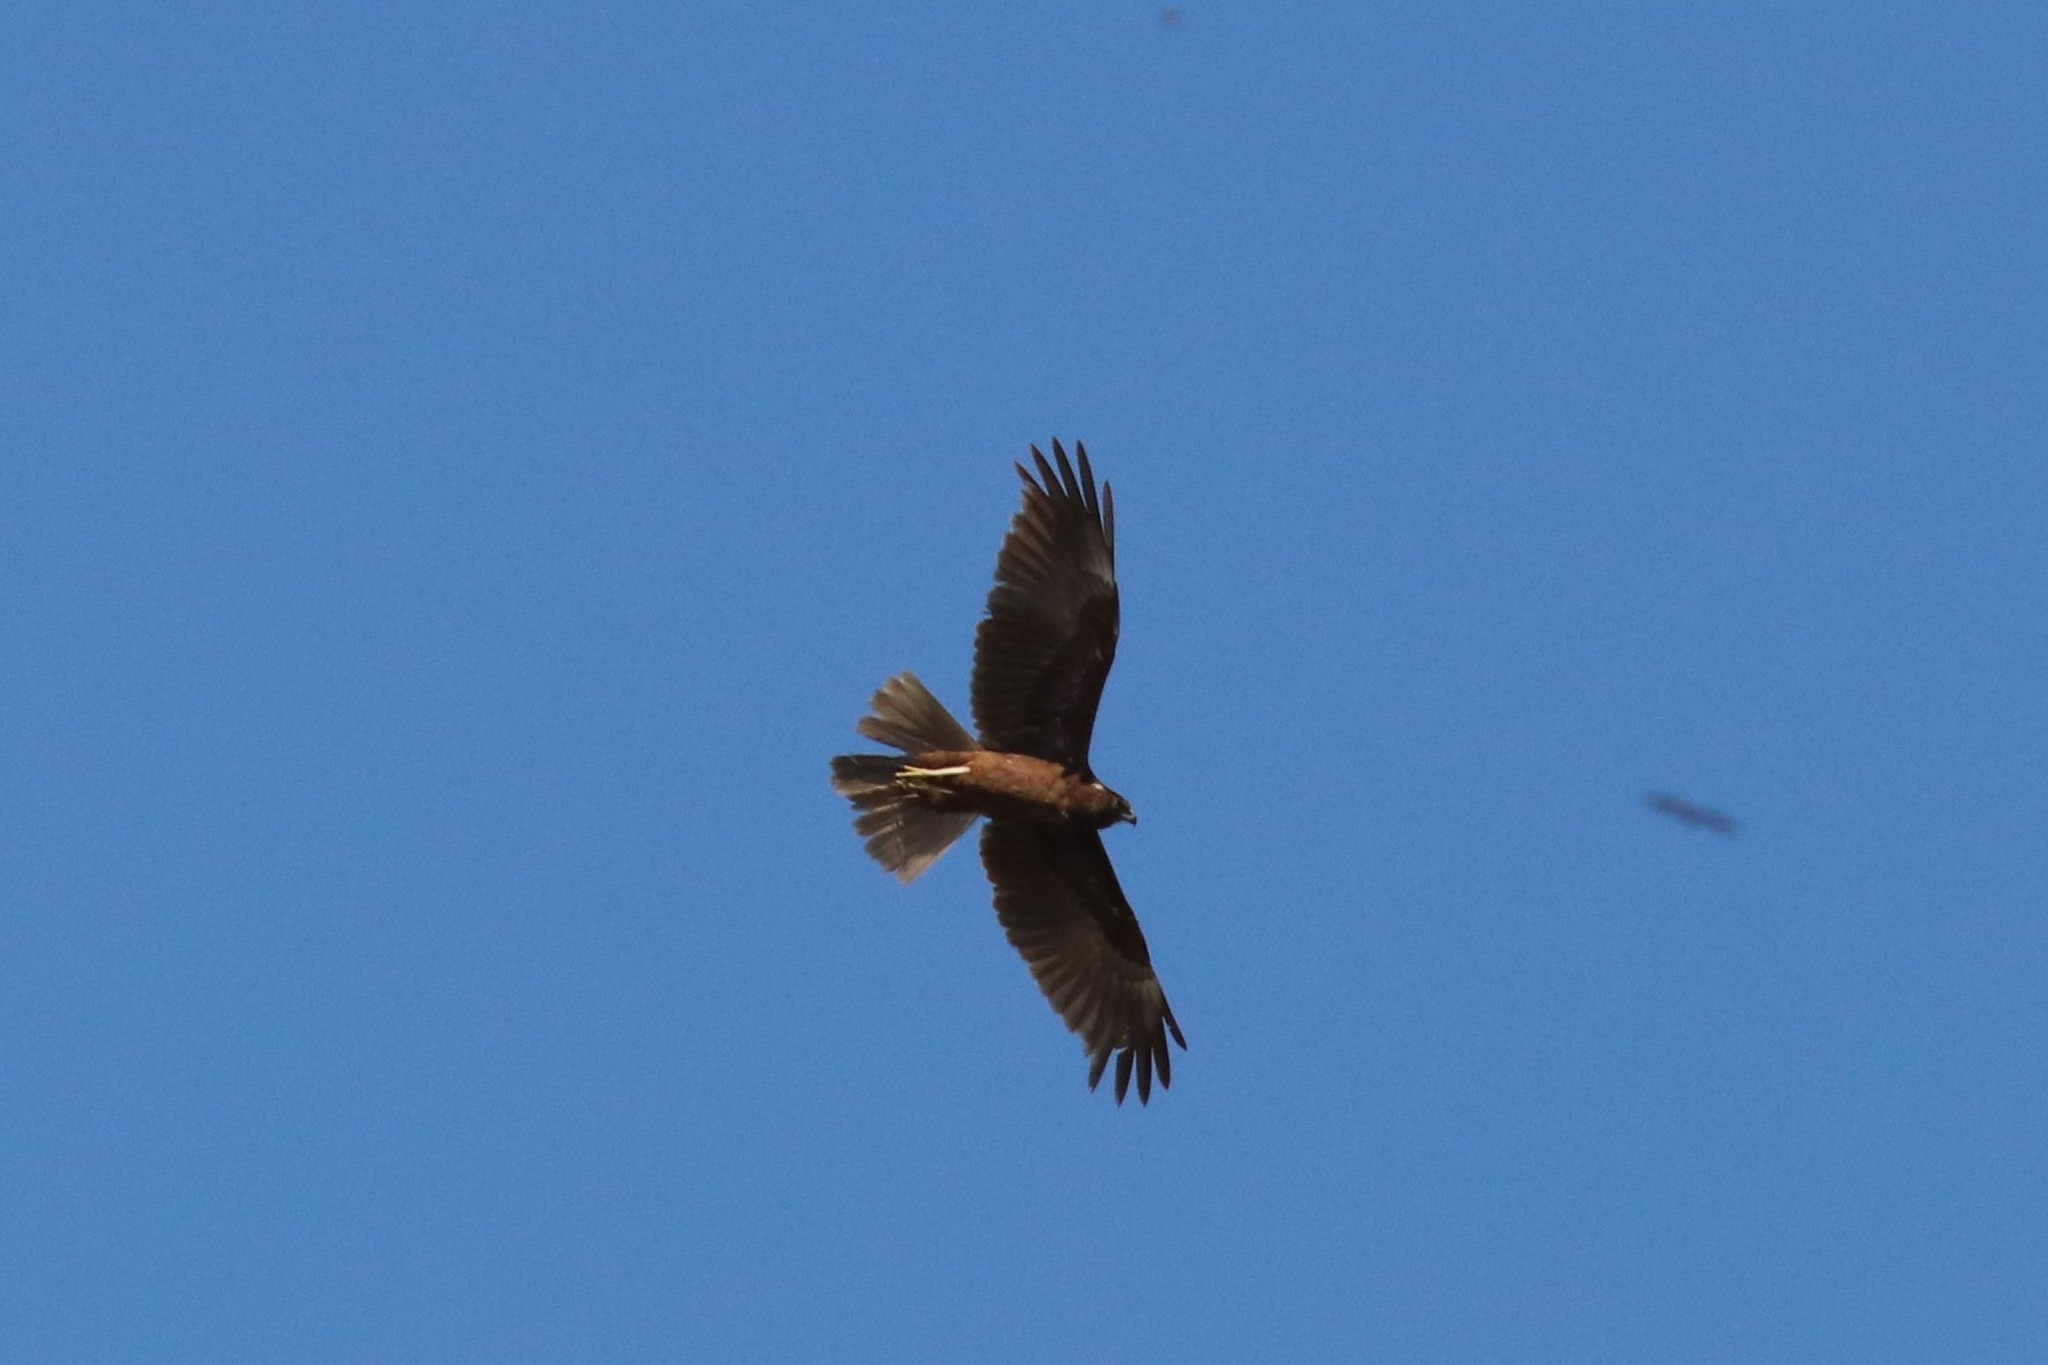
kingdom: Animalia
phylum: Chordata
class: Aves
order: Accipitriformes
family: Accipitridae
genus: Circus
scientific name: Circus aeruginosus
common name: Western marsh harrier
